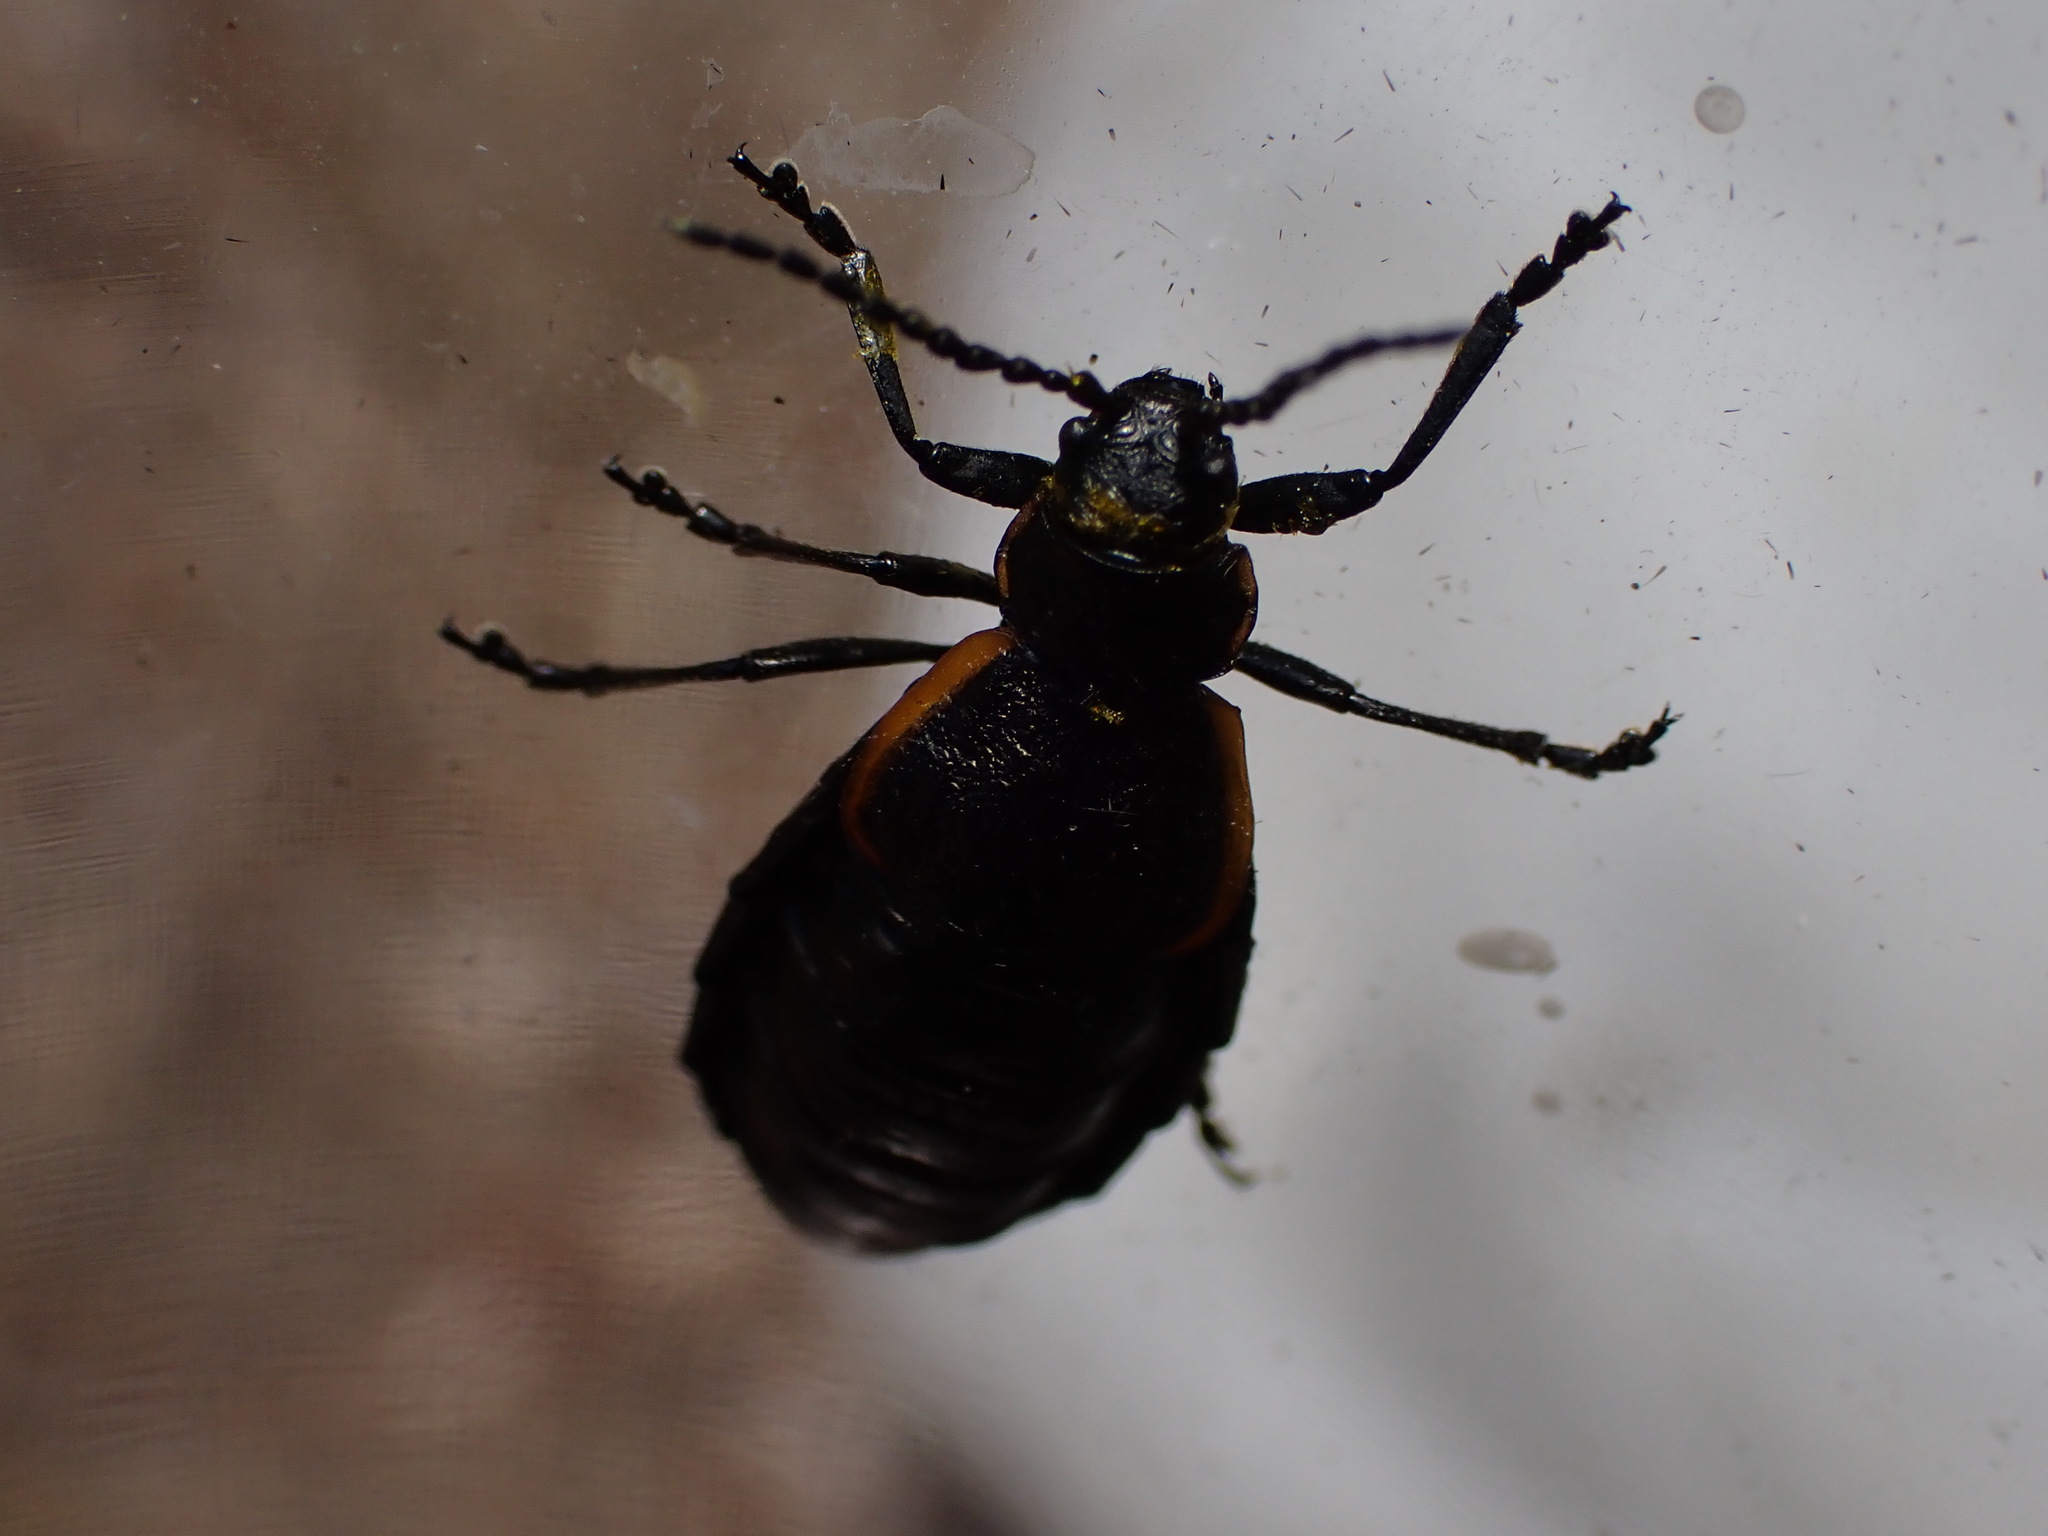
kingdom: Animalia
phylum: Arthropoda
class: Insecta
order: Coleoptera
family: Chrysomelidae
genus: Arima
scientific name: Arima marginata
